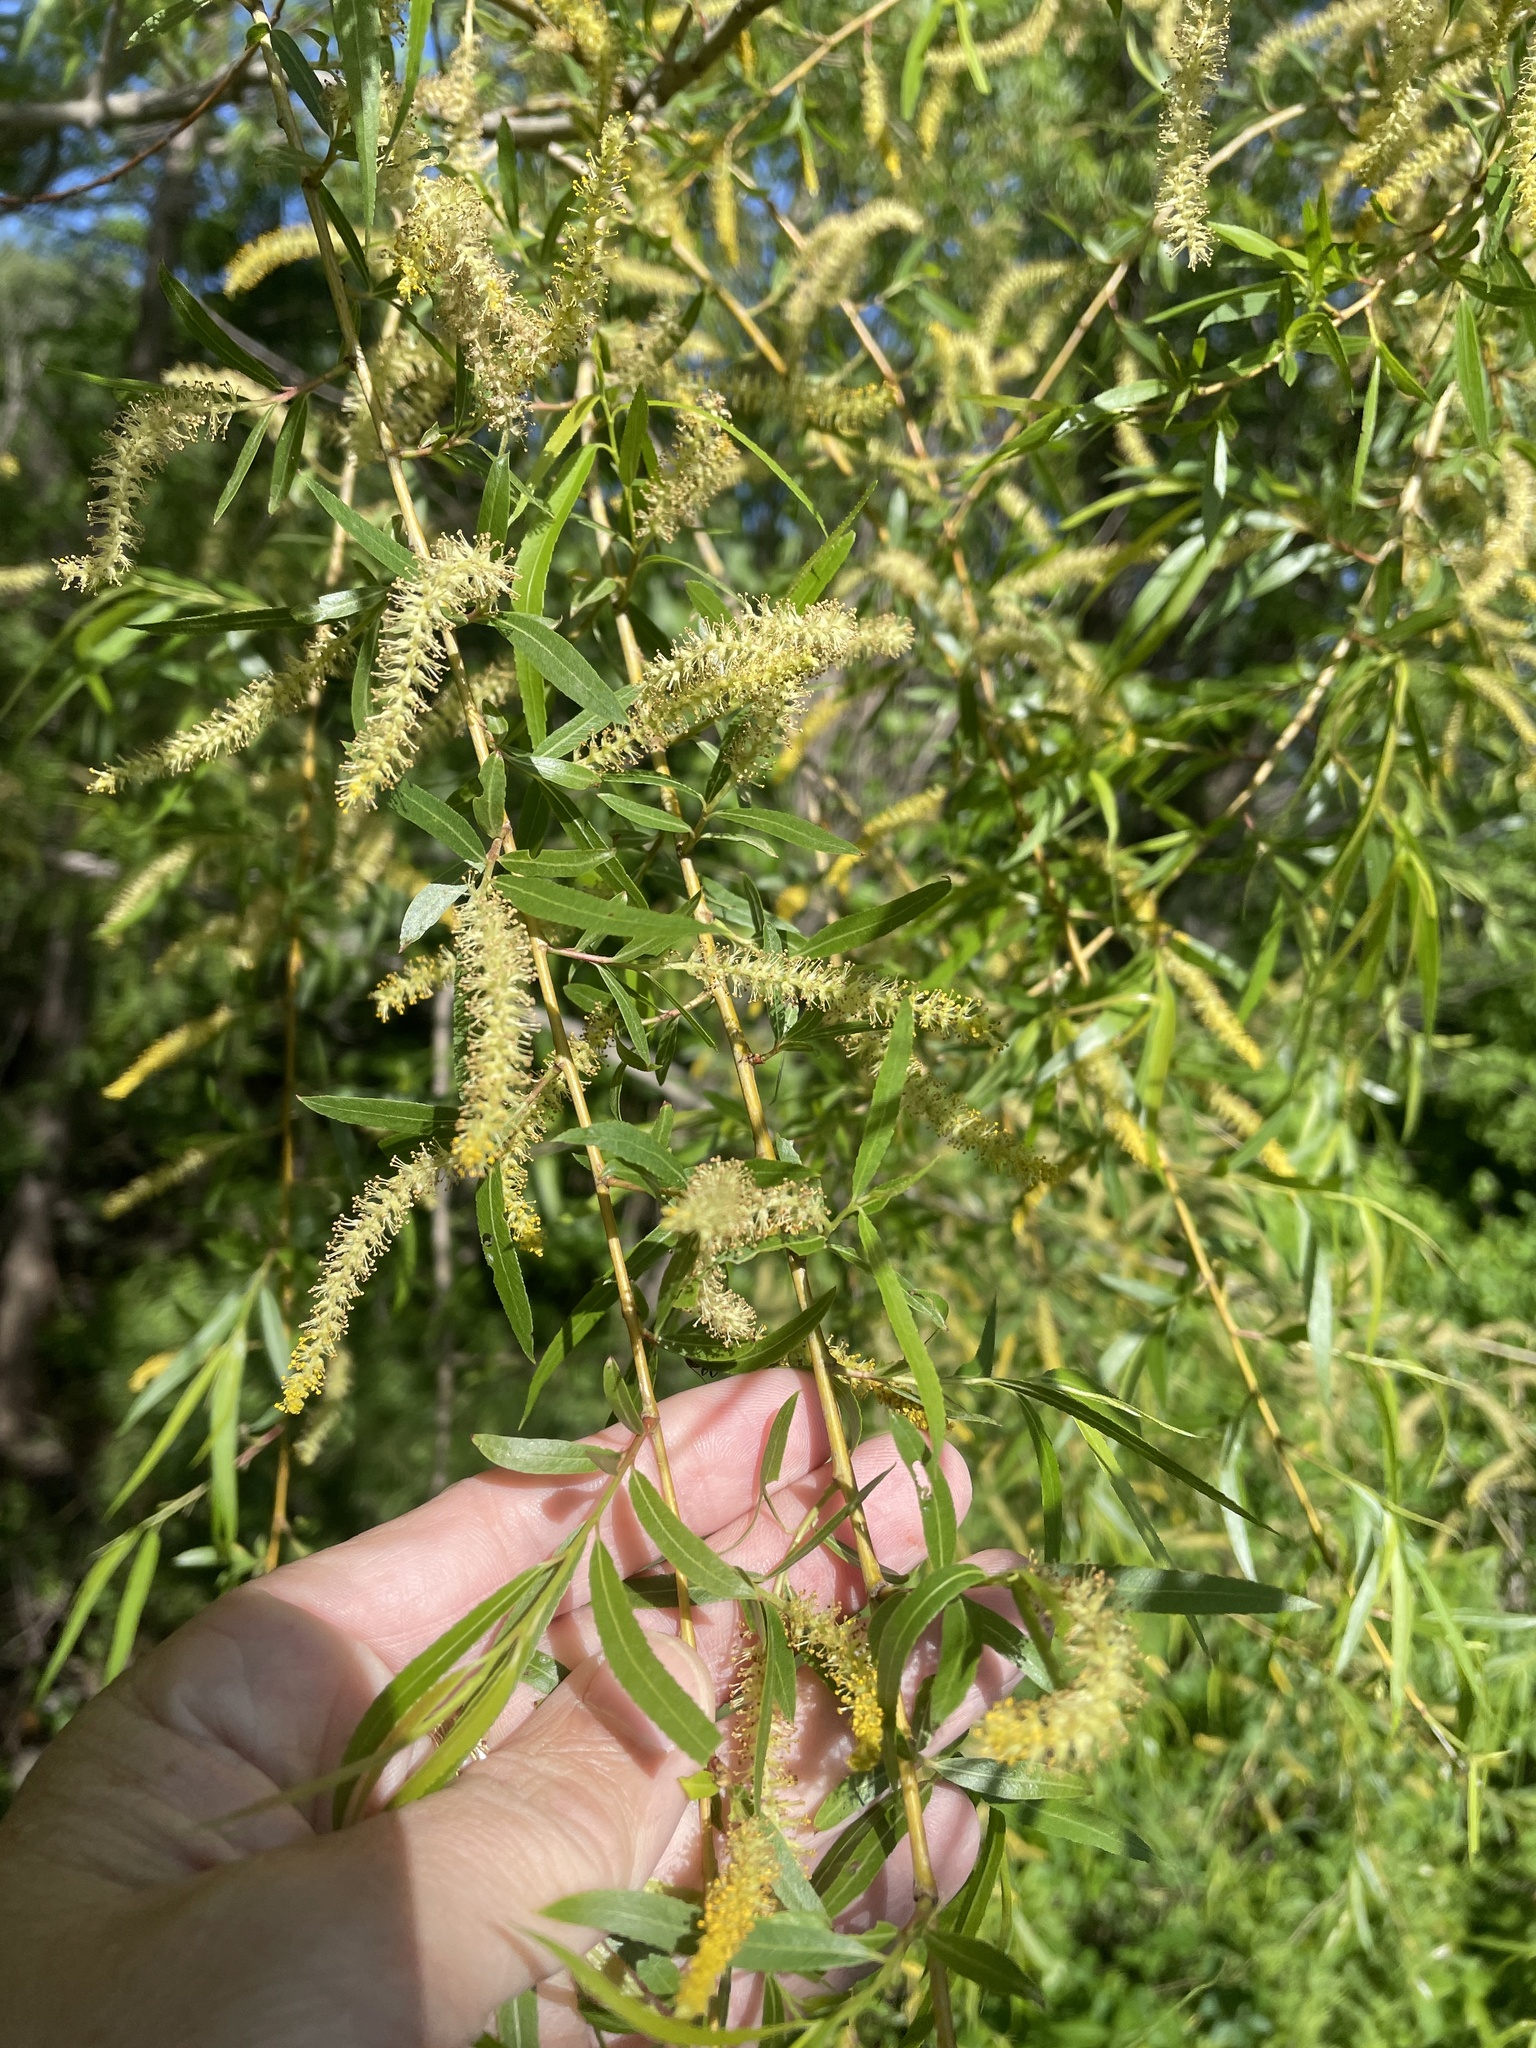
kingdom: Plantae
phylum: Tracheophyta
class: Magnoliopsida
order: Malpighiales
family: Salicaceae
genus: Salix
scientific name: Salix nigra
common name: Black willow
